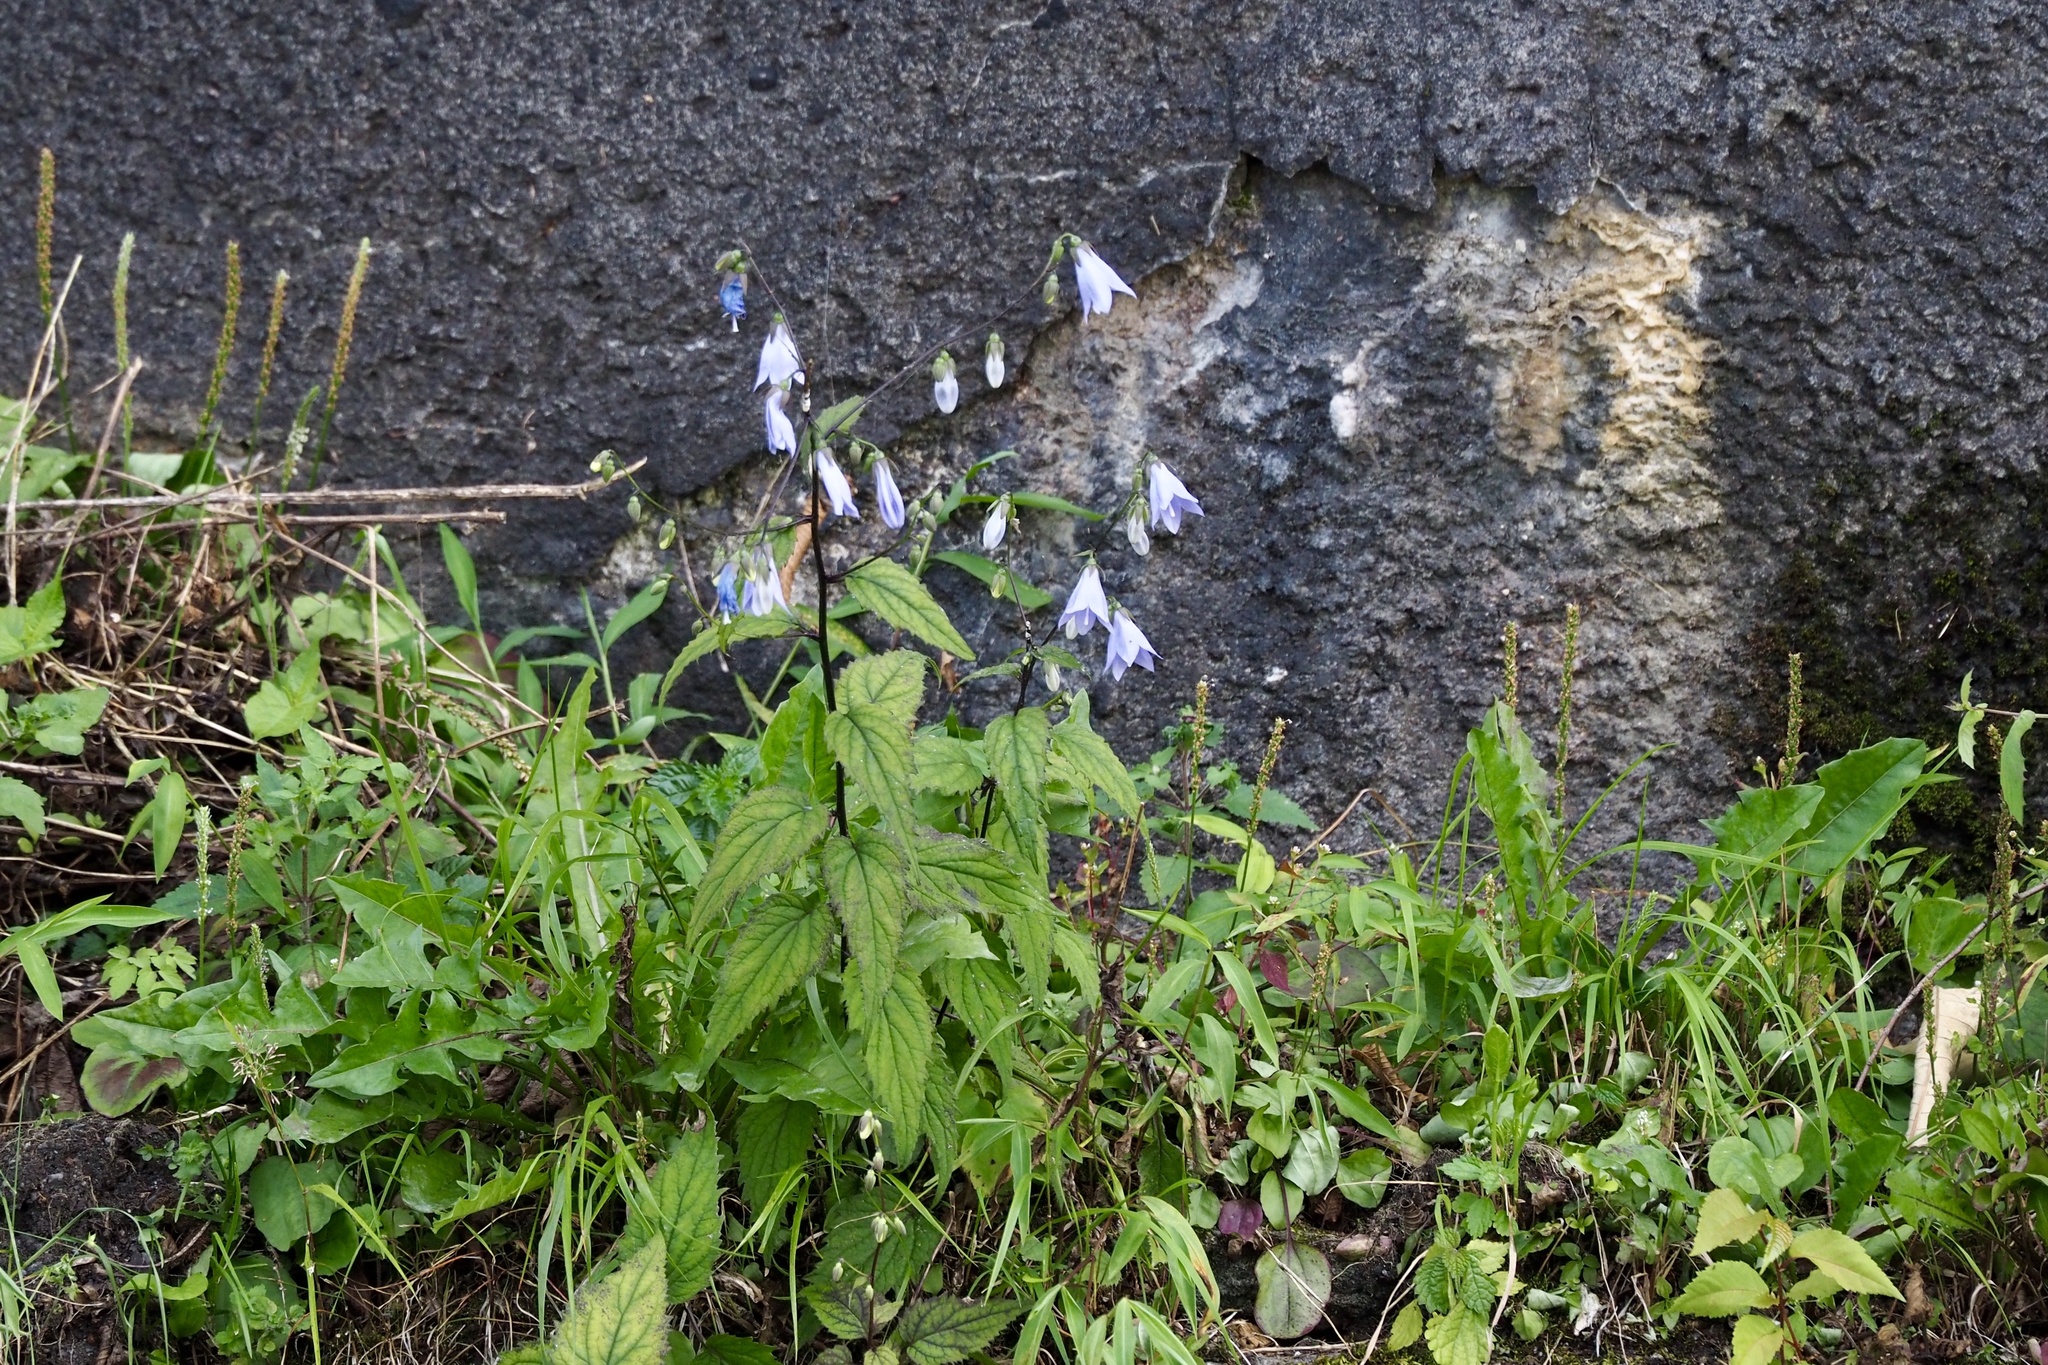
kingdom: Plantae
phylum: Tracheophyta
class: Magnoliopsida
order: Asterales
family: Campanulaceae
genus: Adenophora
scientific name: Adenophora remotiflora
